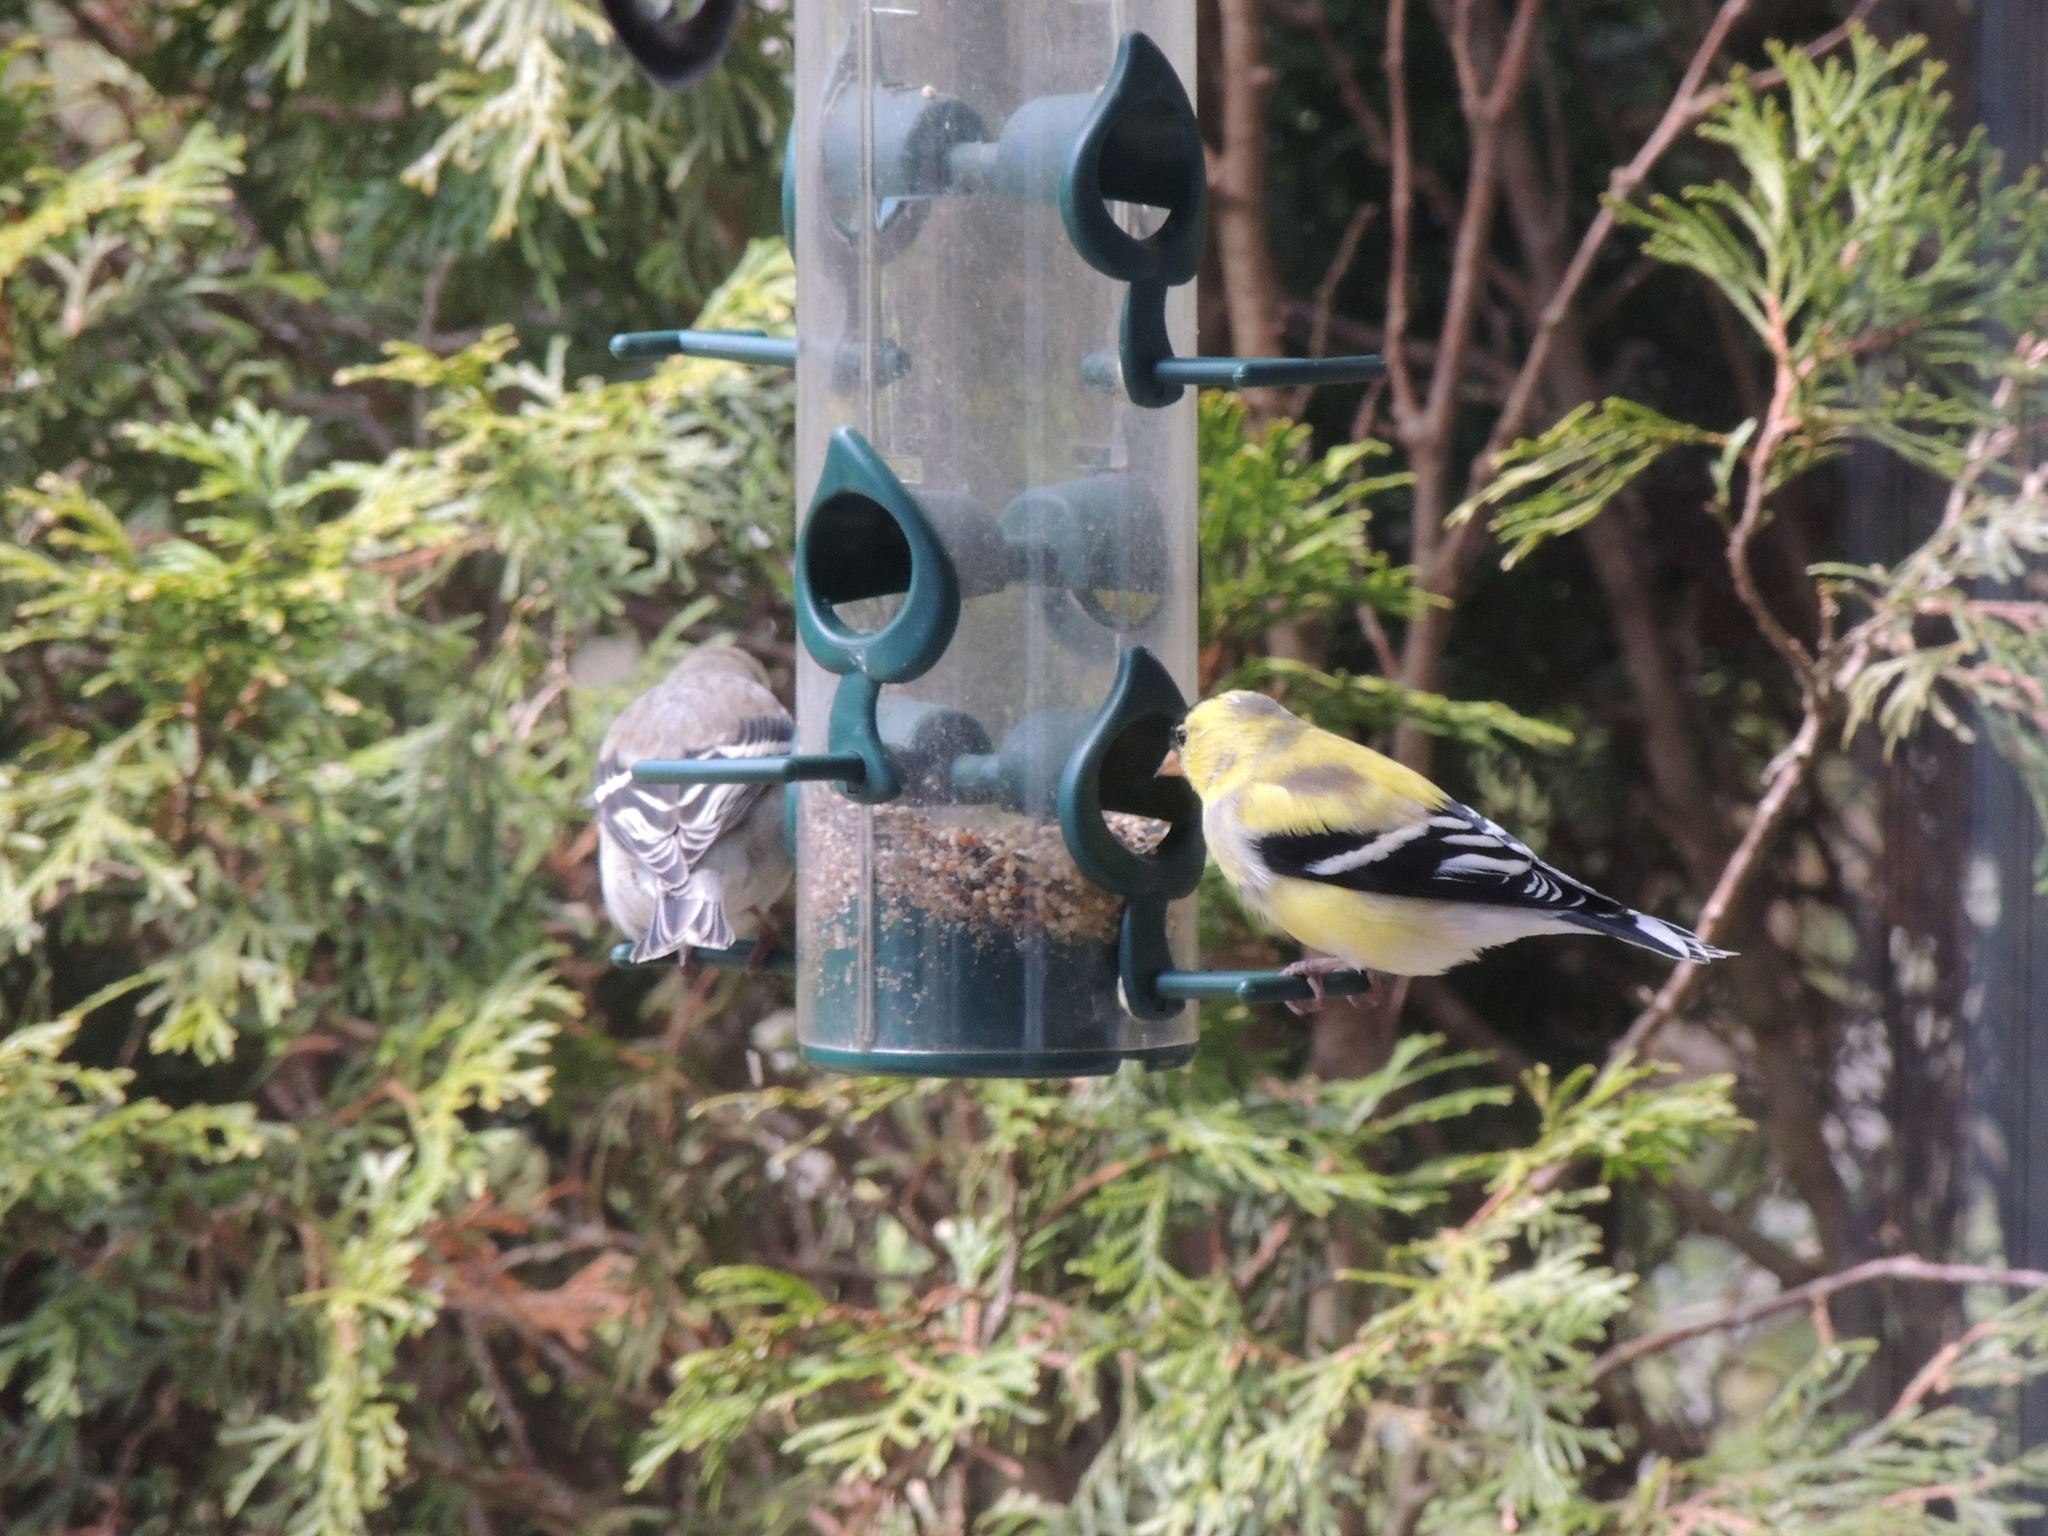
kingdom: Animalia
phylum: Chordata
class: Aves
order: Passeriformes
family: Fringillidae
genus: Spinus
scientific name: Spinus tristis
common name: American goldfinch
